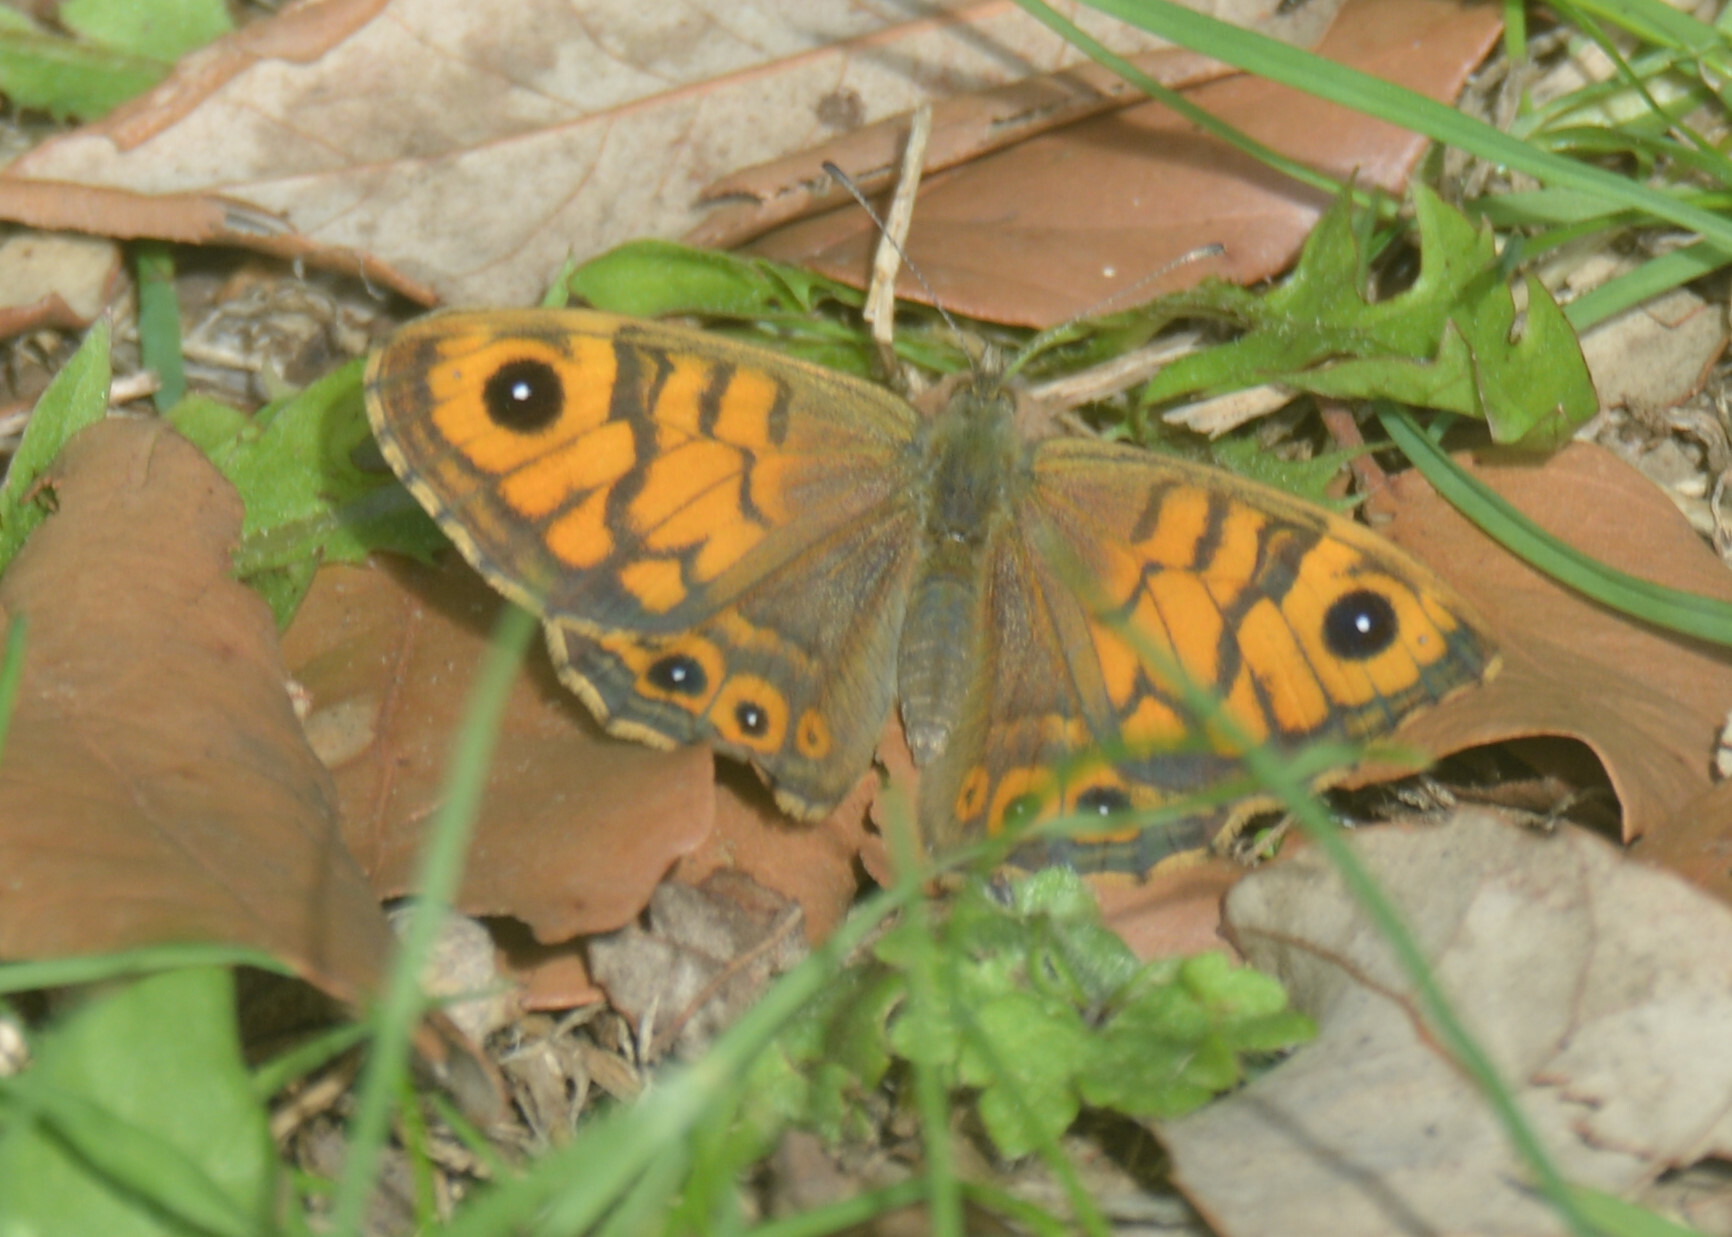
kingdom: Animalia
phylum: Arthropoda
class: Insecta
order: Lepidoptera
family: Nymphalidae
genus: Pararge
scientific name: Pararge Lasiommata megera
